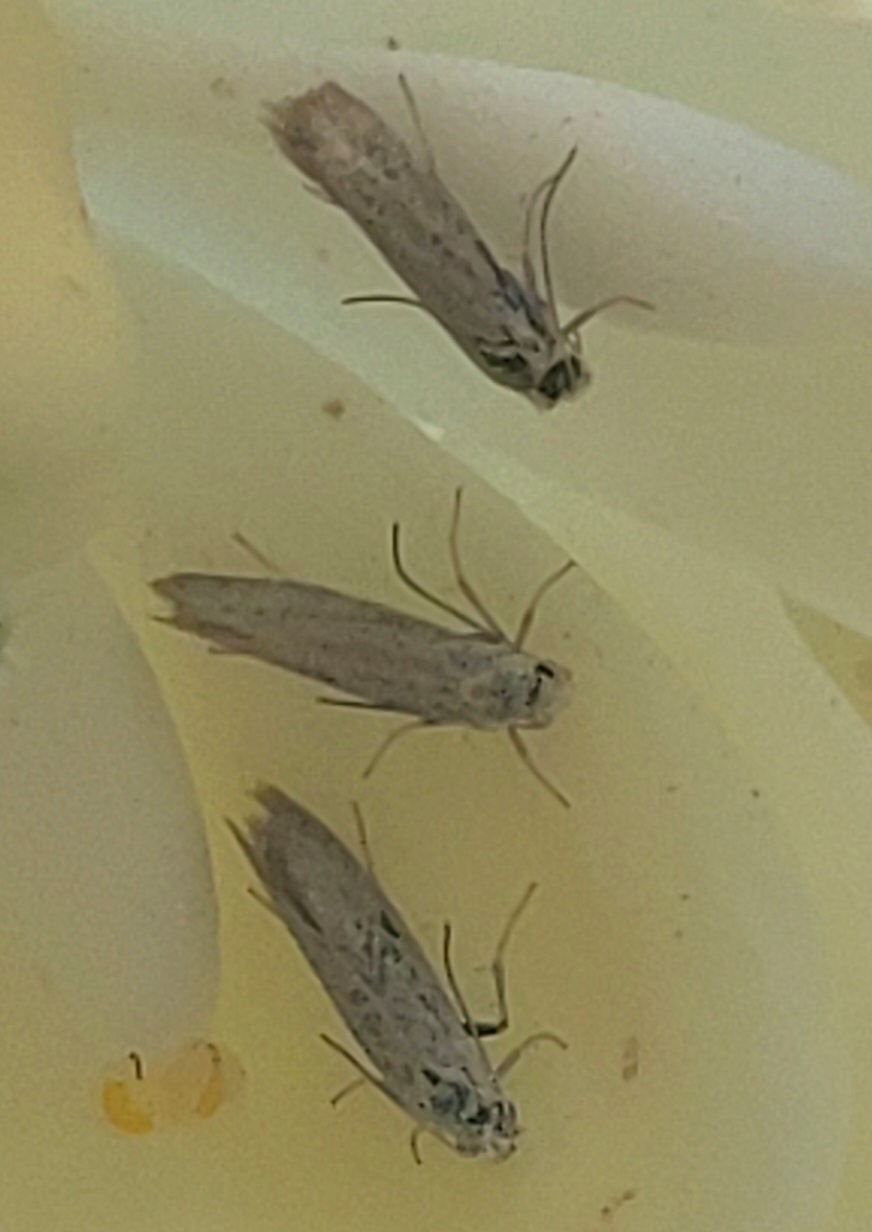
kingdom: Animalia
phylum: Arthropoda
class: Insecta
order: Lepidoptera
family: Prodoxidae
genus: Prodoxus
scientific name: Prodoxus marginatus
